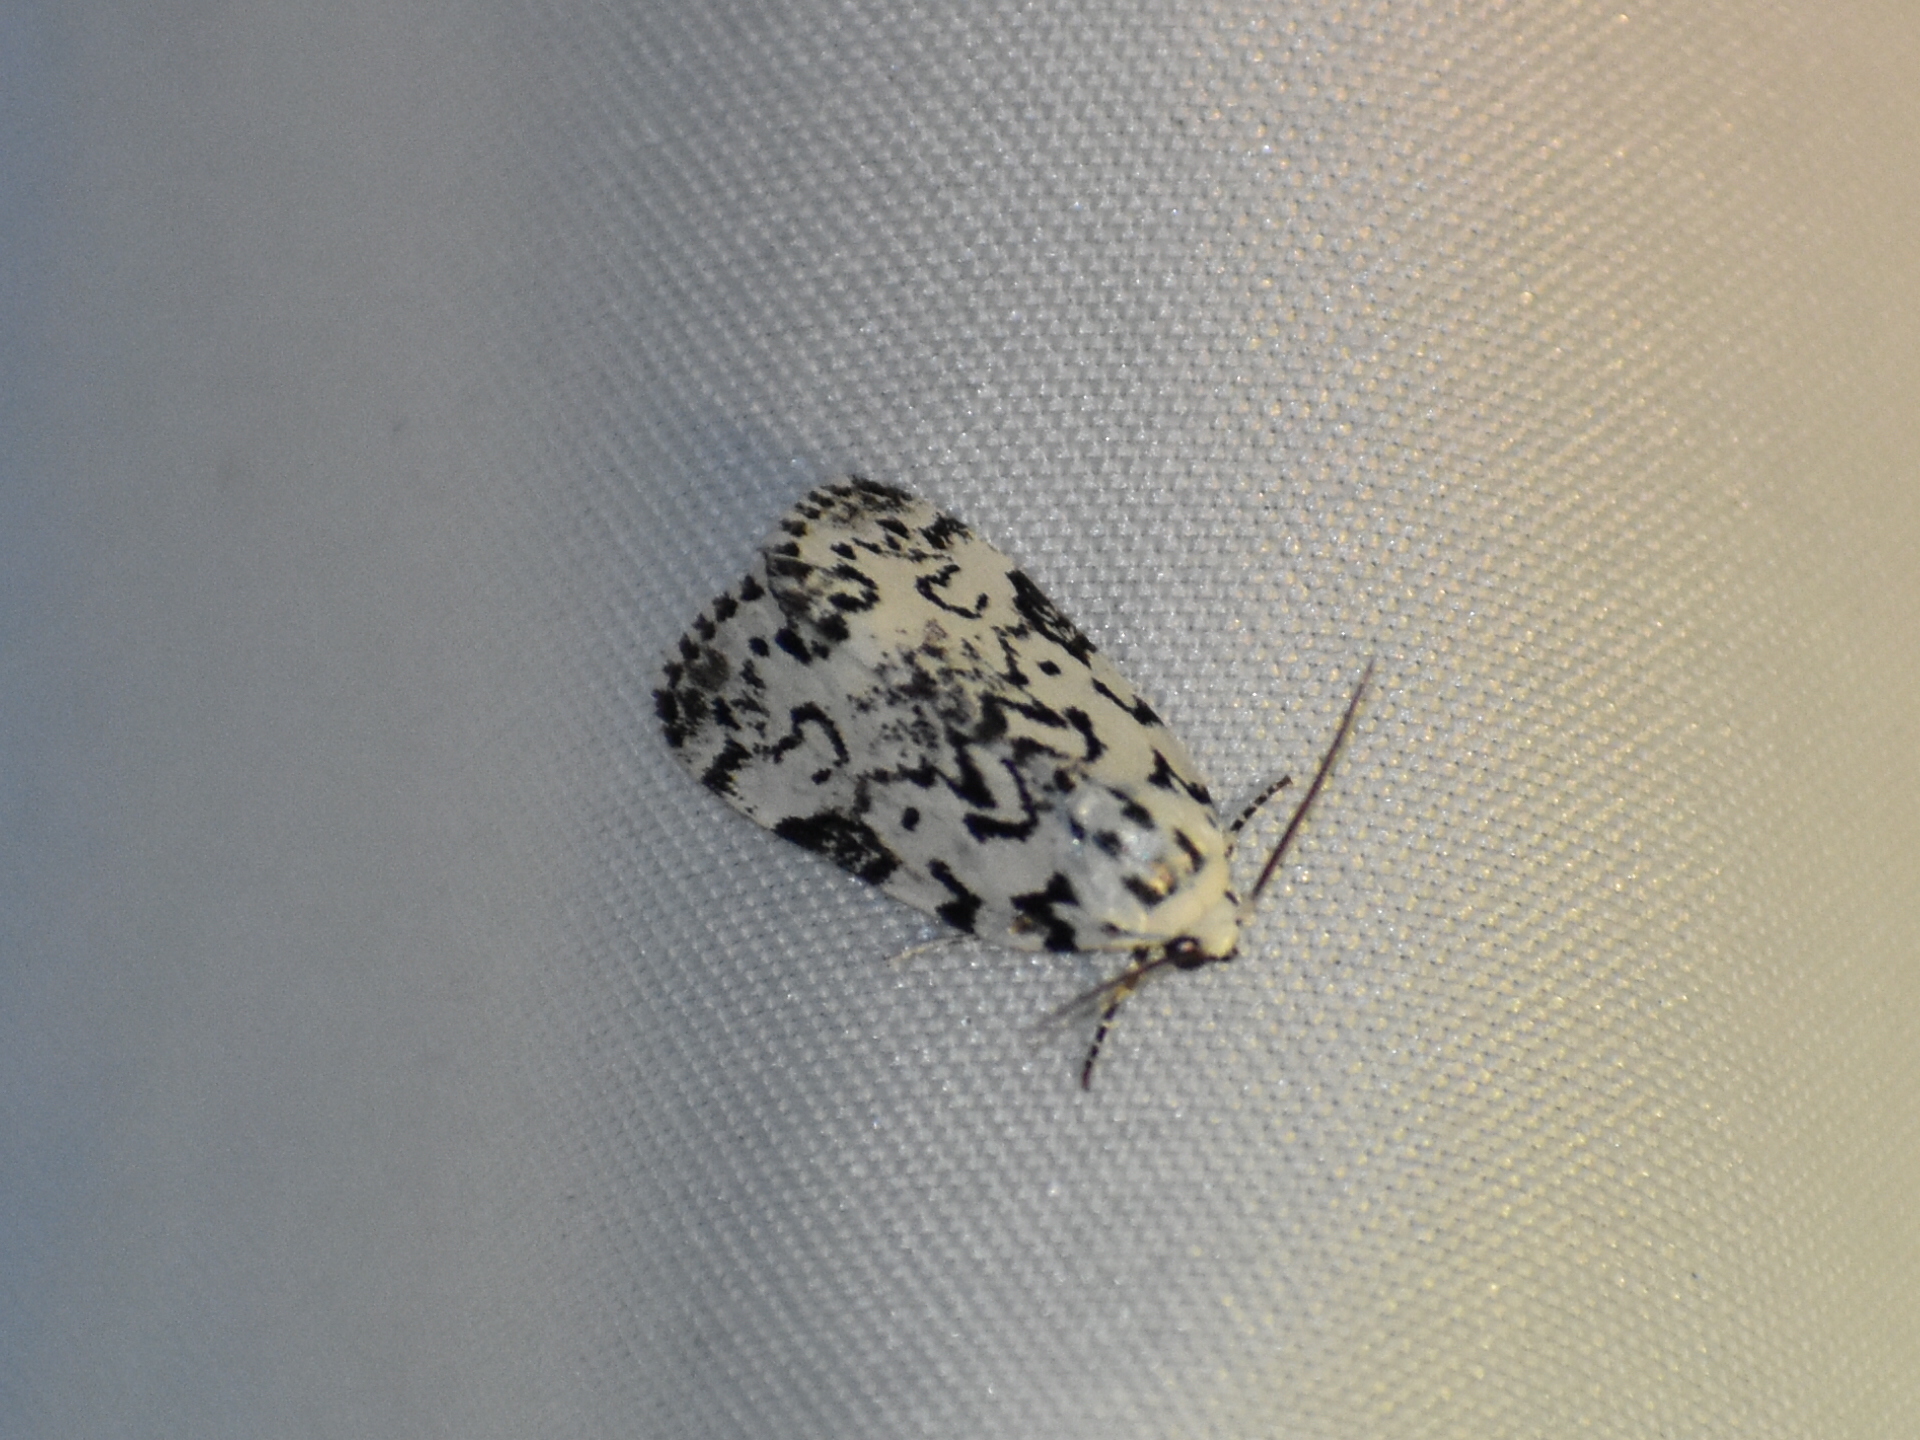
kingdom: Animalia
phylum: Arthropoda
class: Insecta
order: Lepidoptera
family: Noctuidae
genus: Polygrammate
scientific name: Polygrammate hebraeicum
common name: Hebrew moth
